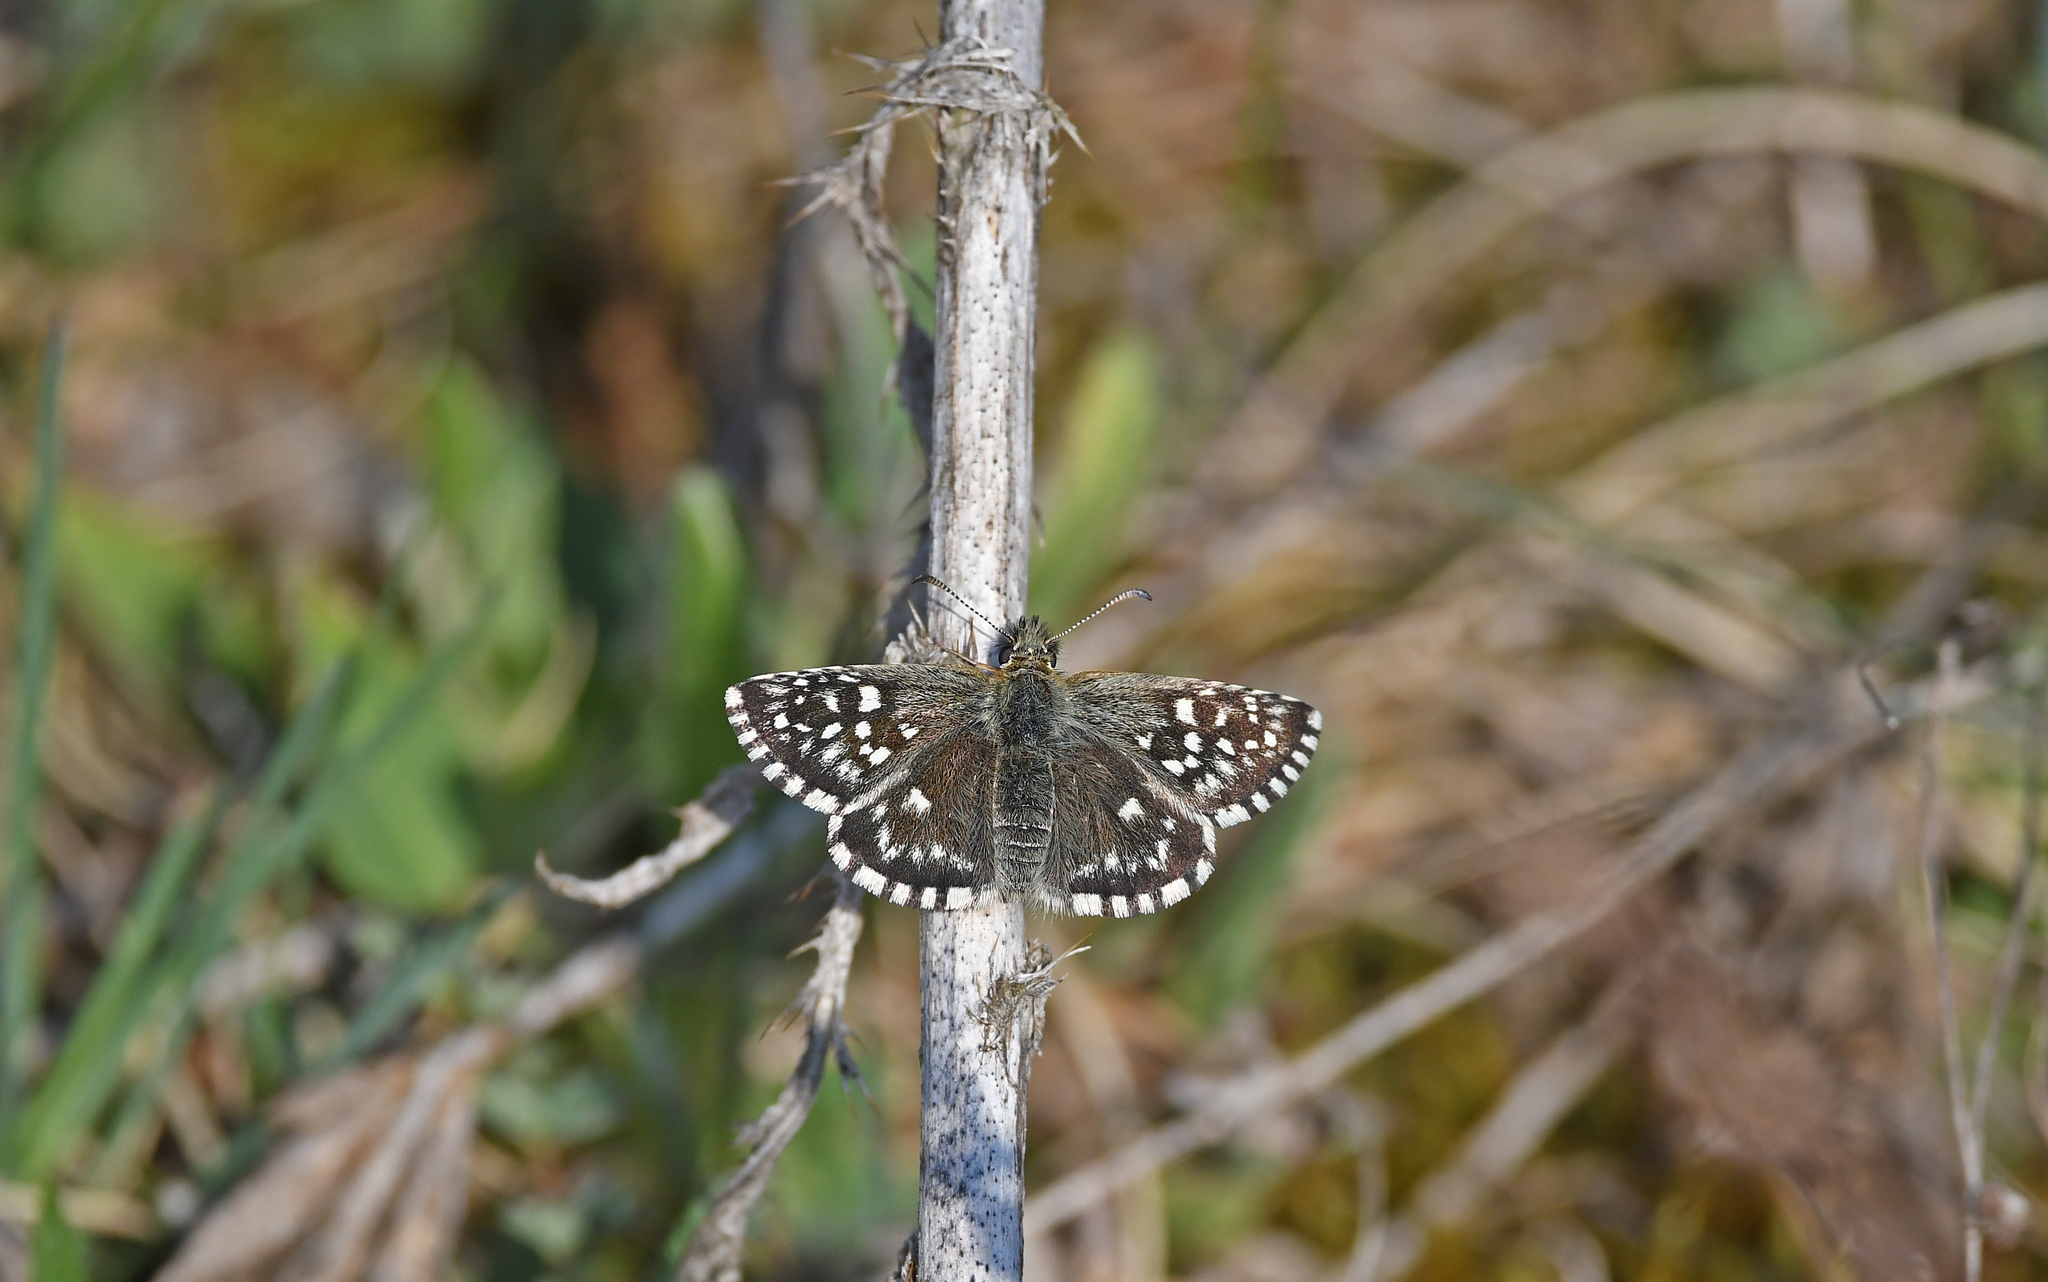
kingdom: Animalia
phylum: Arthropoda
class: Insecta
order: Lepidoptera
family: Hesperiidae
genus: Pyrgus
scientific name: Pyrgus malvae
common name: Grizzled skipper
